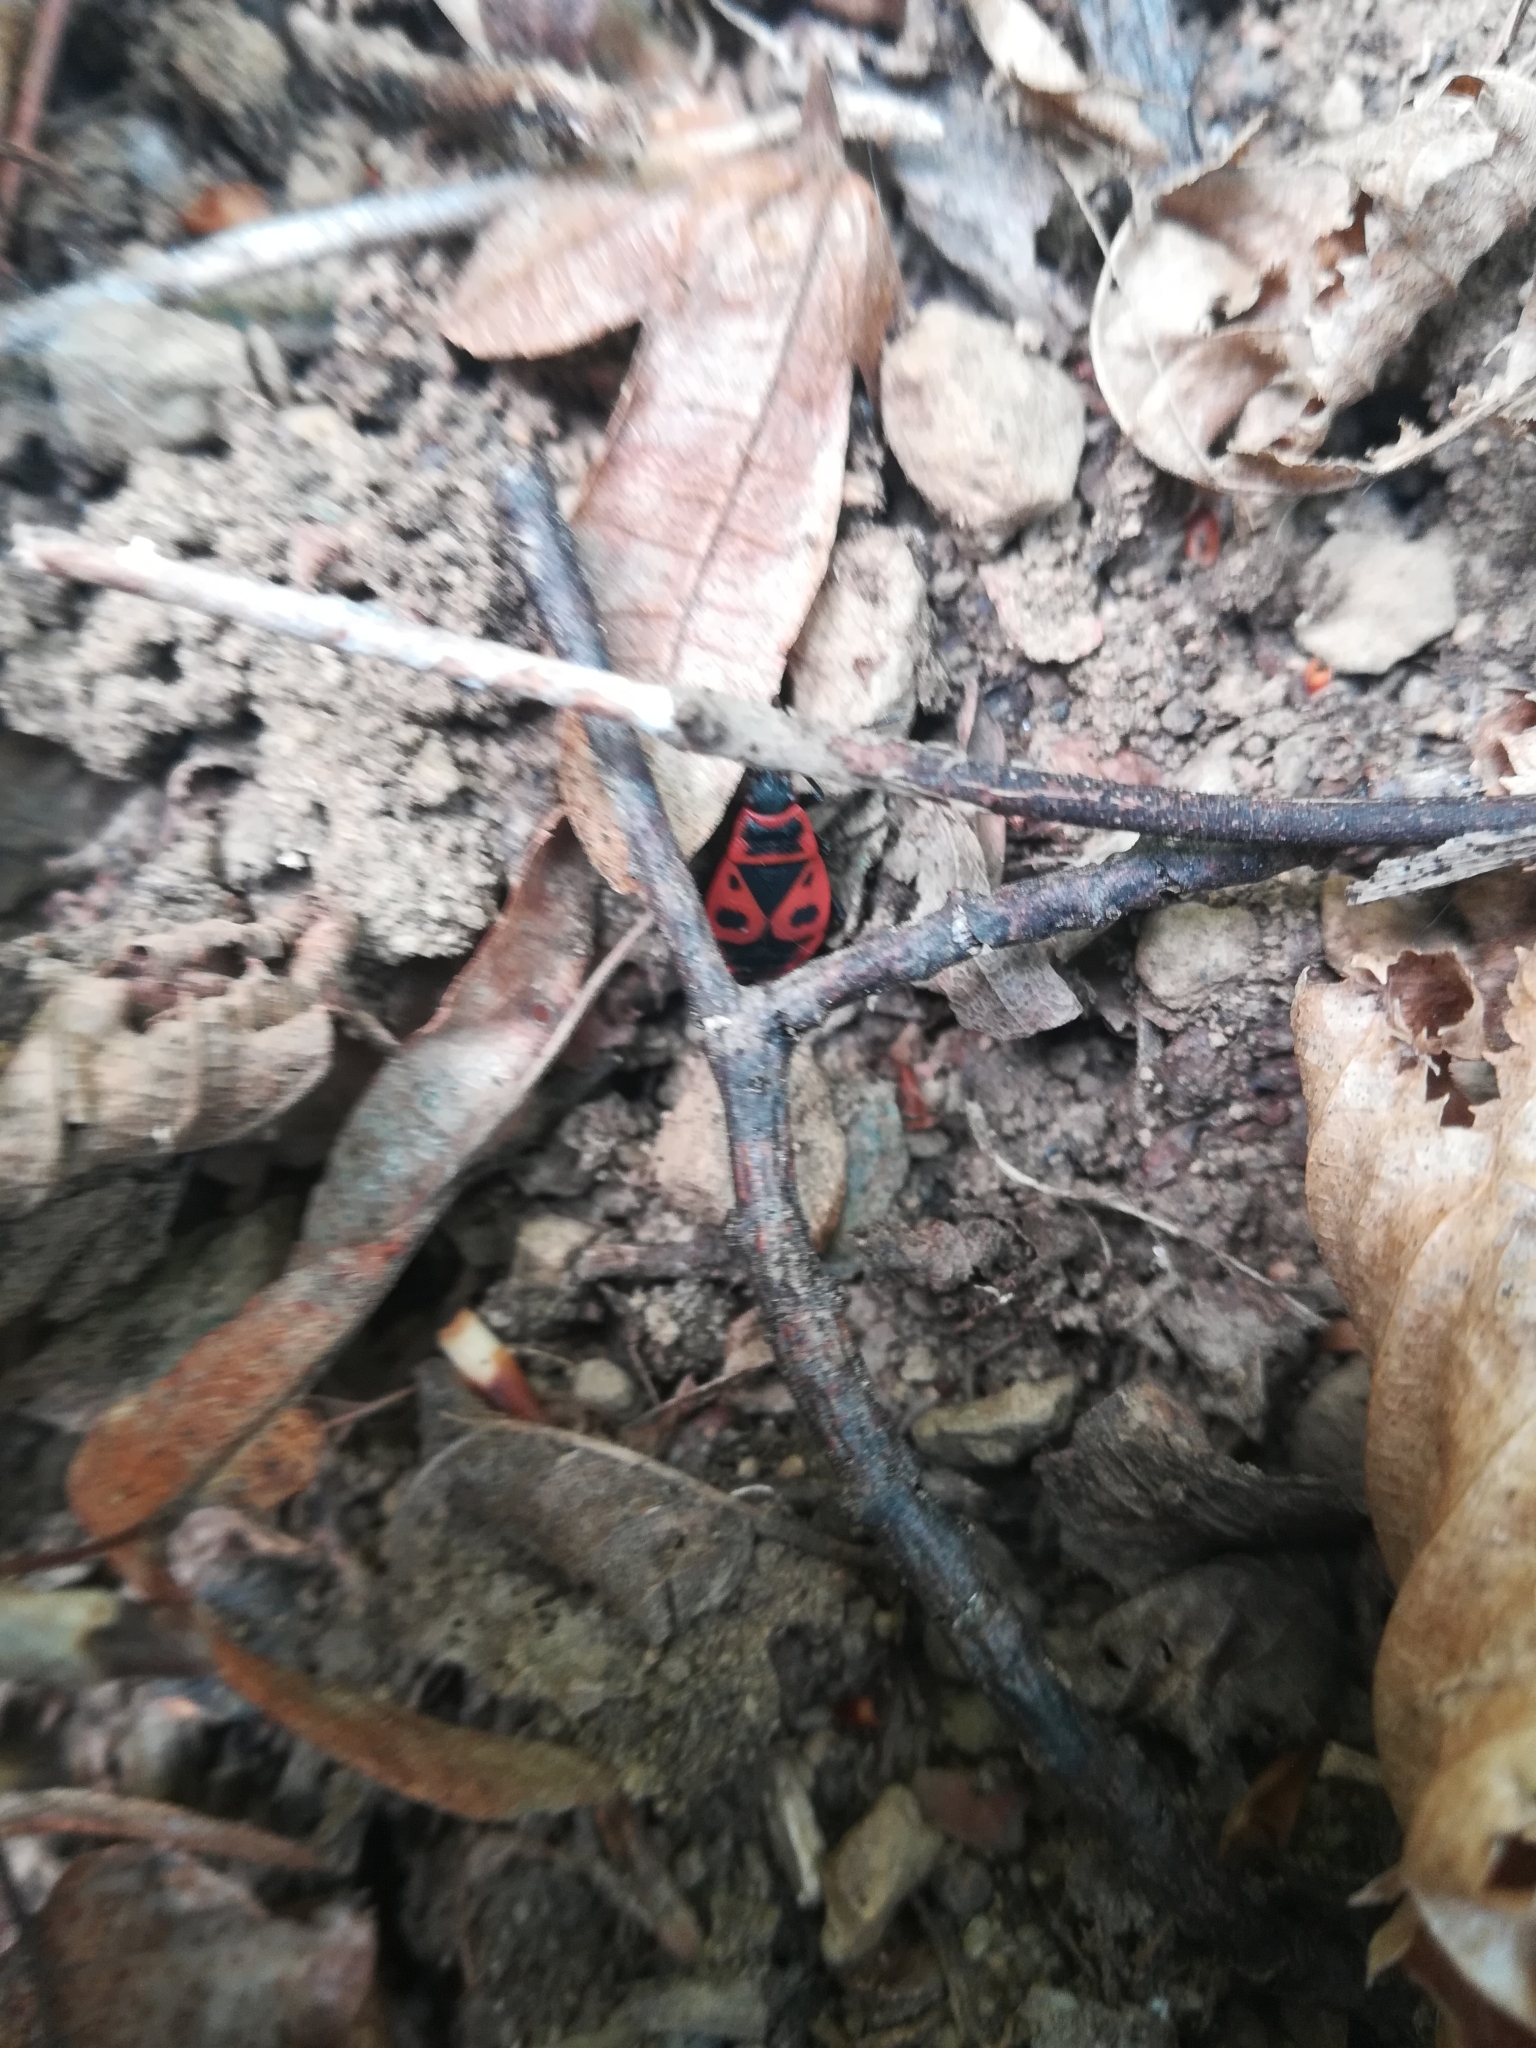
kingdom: Animalia
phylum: Arthropoda
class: Insecta
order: Hemiptera
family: Pyrrhocoridae
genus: Pyrrhocoris
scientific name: Pyrrhocoris apterus
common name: Firebug
